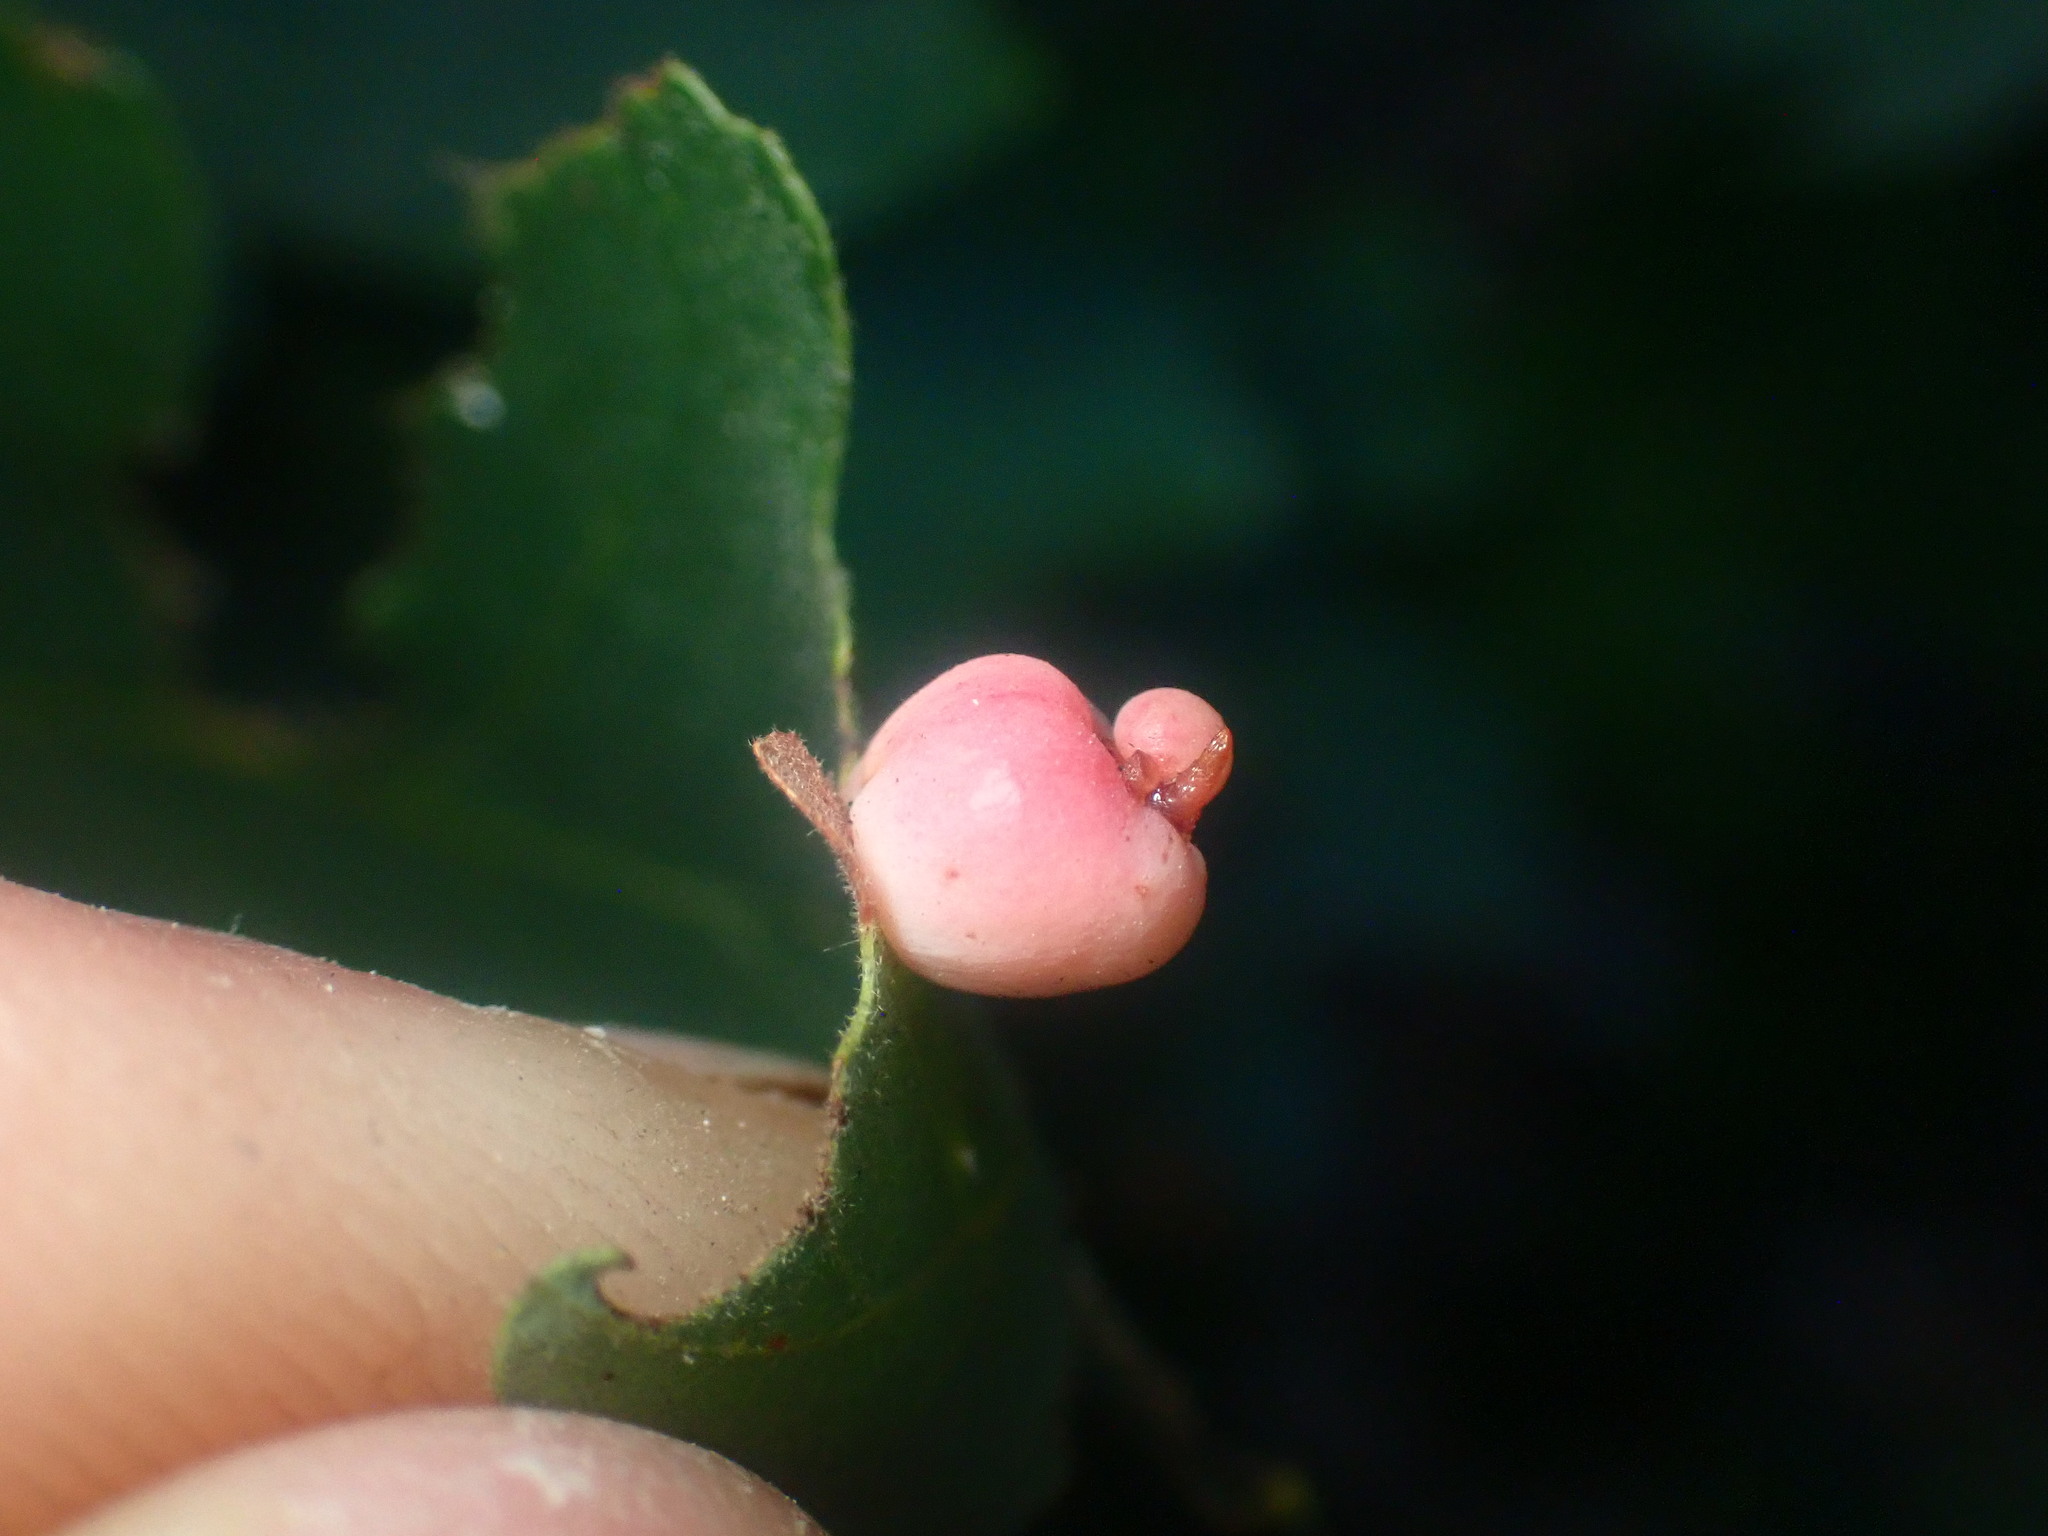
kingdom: Animalia
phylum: Arthropoda
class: Insecta
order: Hymenoptera
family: Cynipidae
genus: Cynips
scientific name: Cynips douglasi
